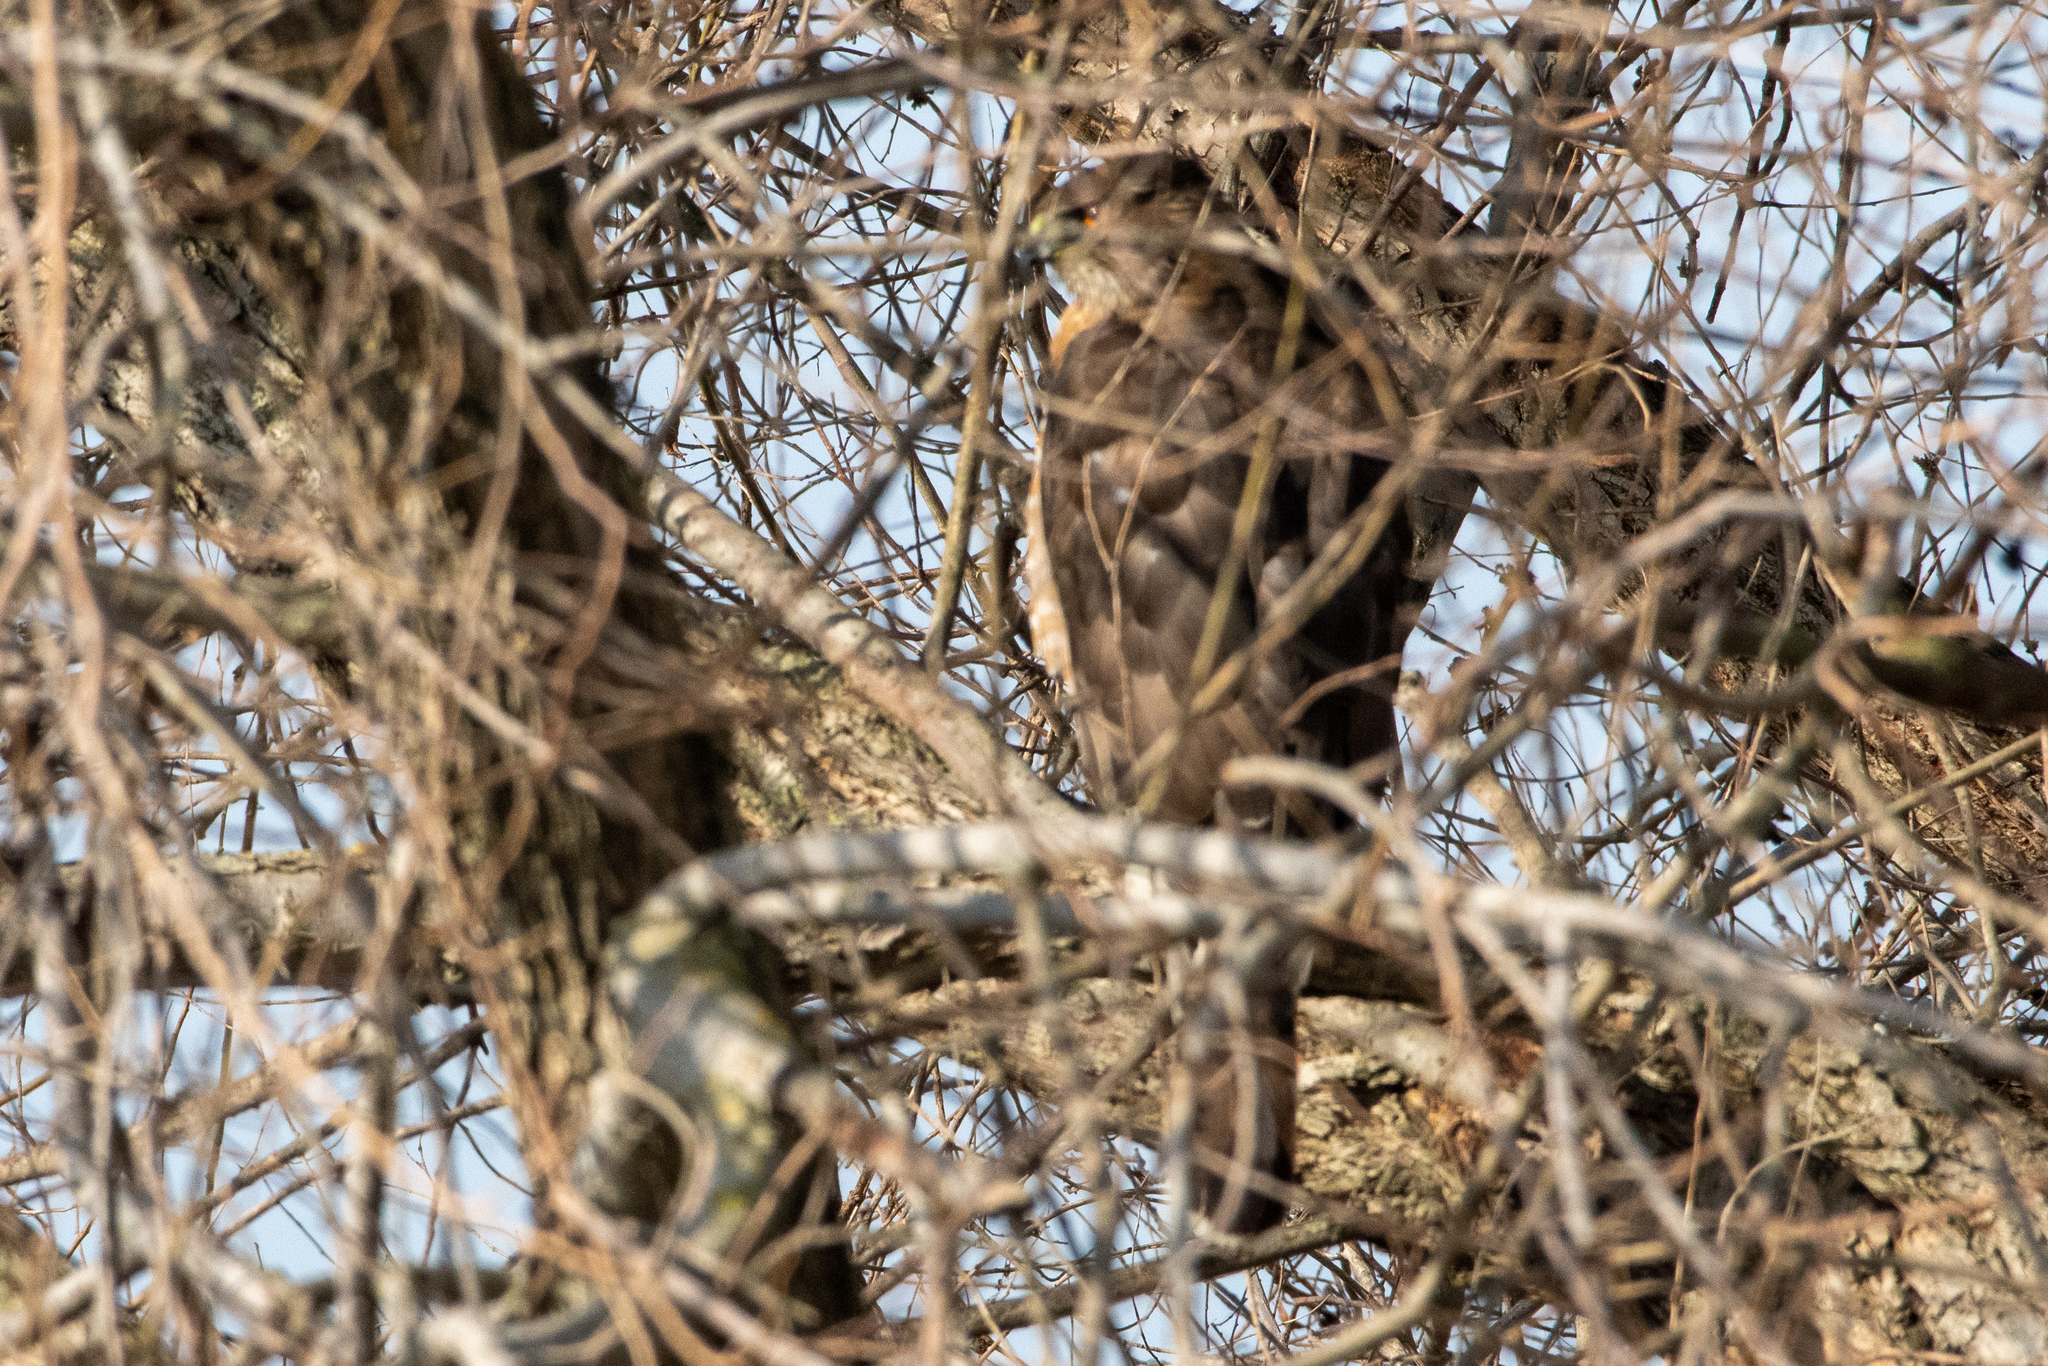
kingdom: Animalia
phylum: Chordata
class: Aves
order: Accipitriformes
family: Accipitridae
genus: Accipiter
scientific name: Accipiter cooperii
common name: Cooper's hawk
